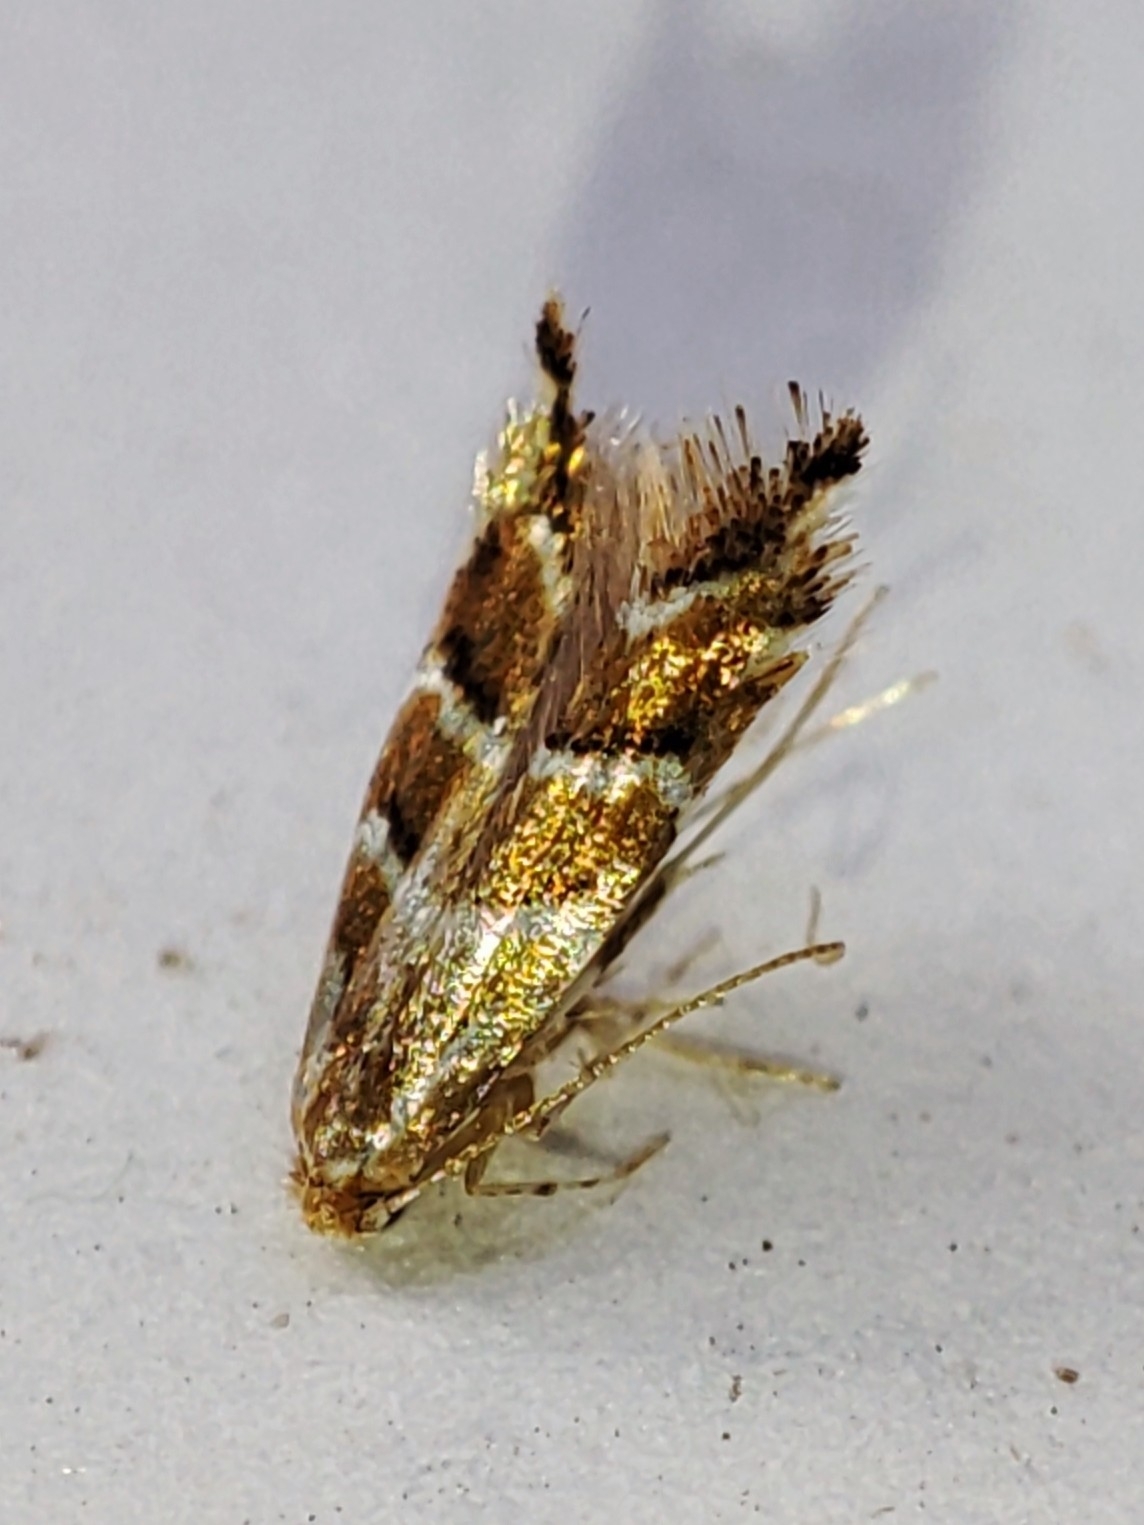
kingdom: Animalia
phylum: Arthropoda
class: Insecta
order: Lepidoptera
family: Gracillariidae
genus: Cameraria
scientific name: Cameraria ohridella
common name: Horse-chestnut leaf-miner
